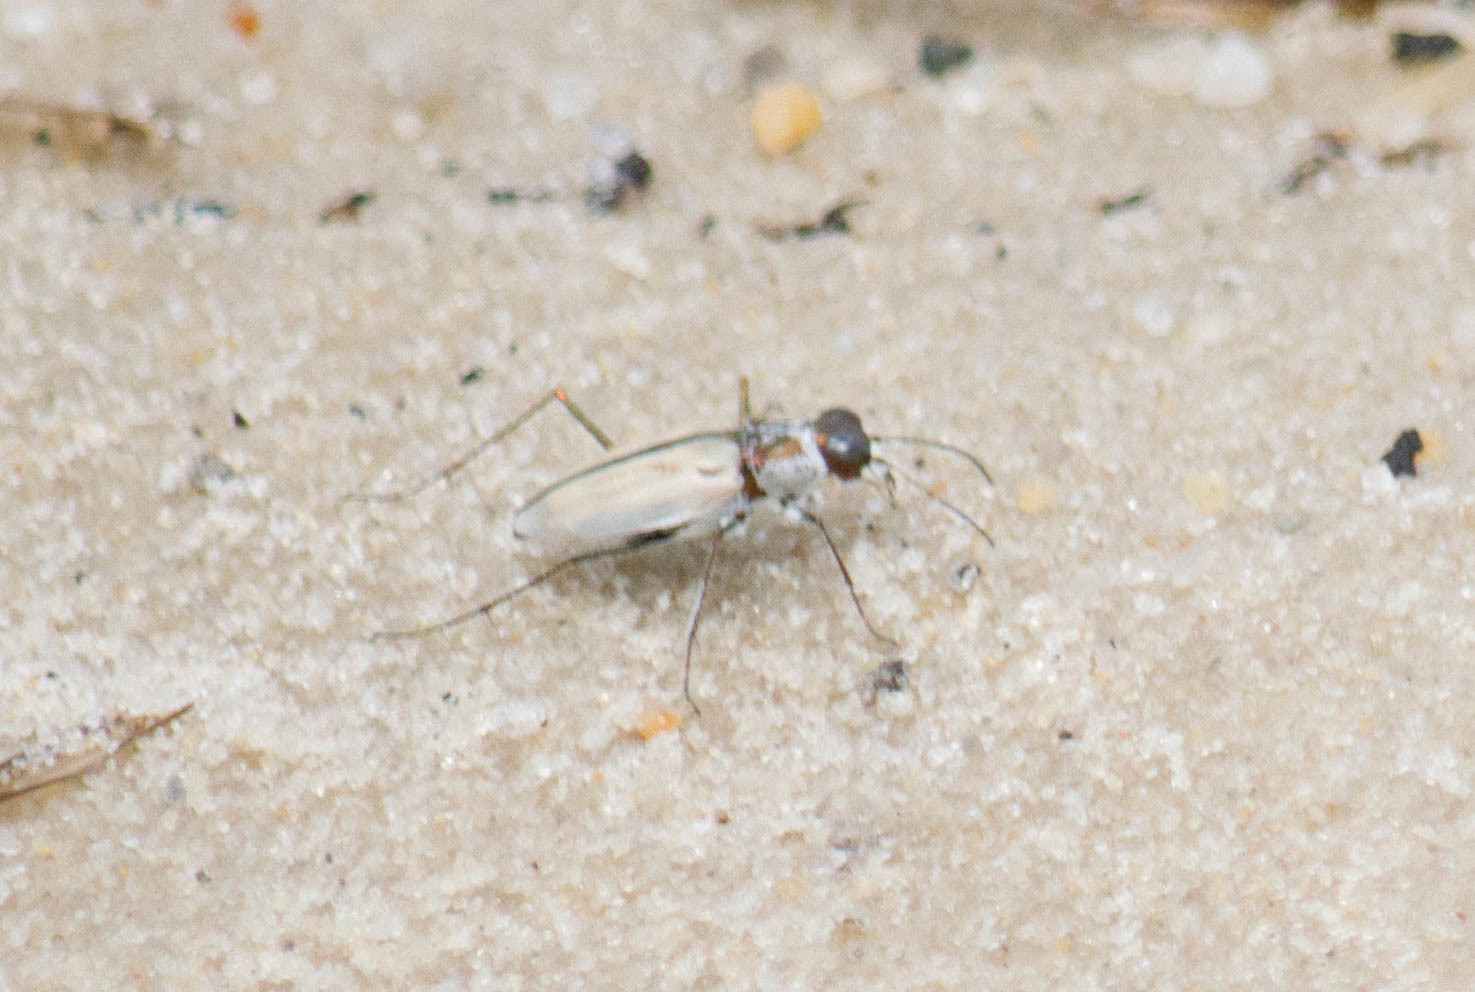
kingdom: Animalia
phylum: Arthropoda
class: Insecta
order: Coleoptera
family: Carabidae
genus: Habroscelimorpha
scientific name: Habroscelimorpha dorsalis
